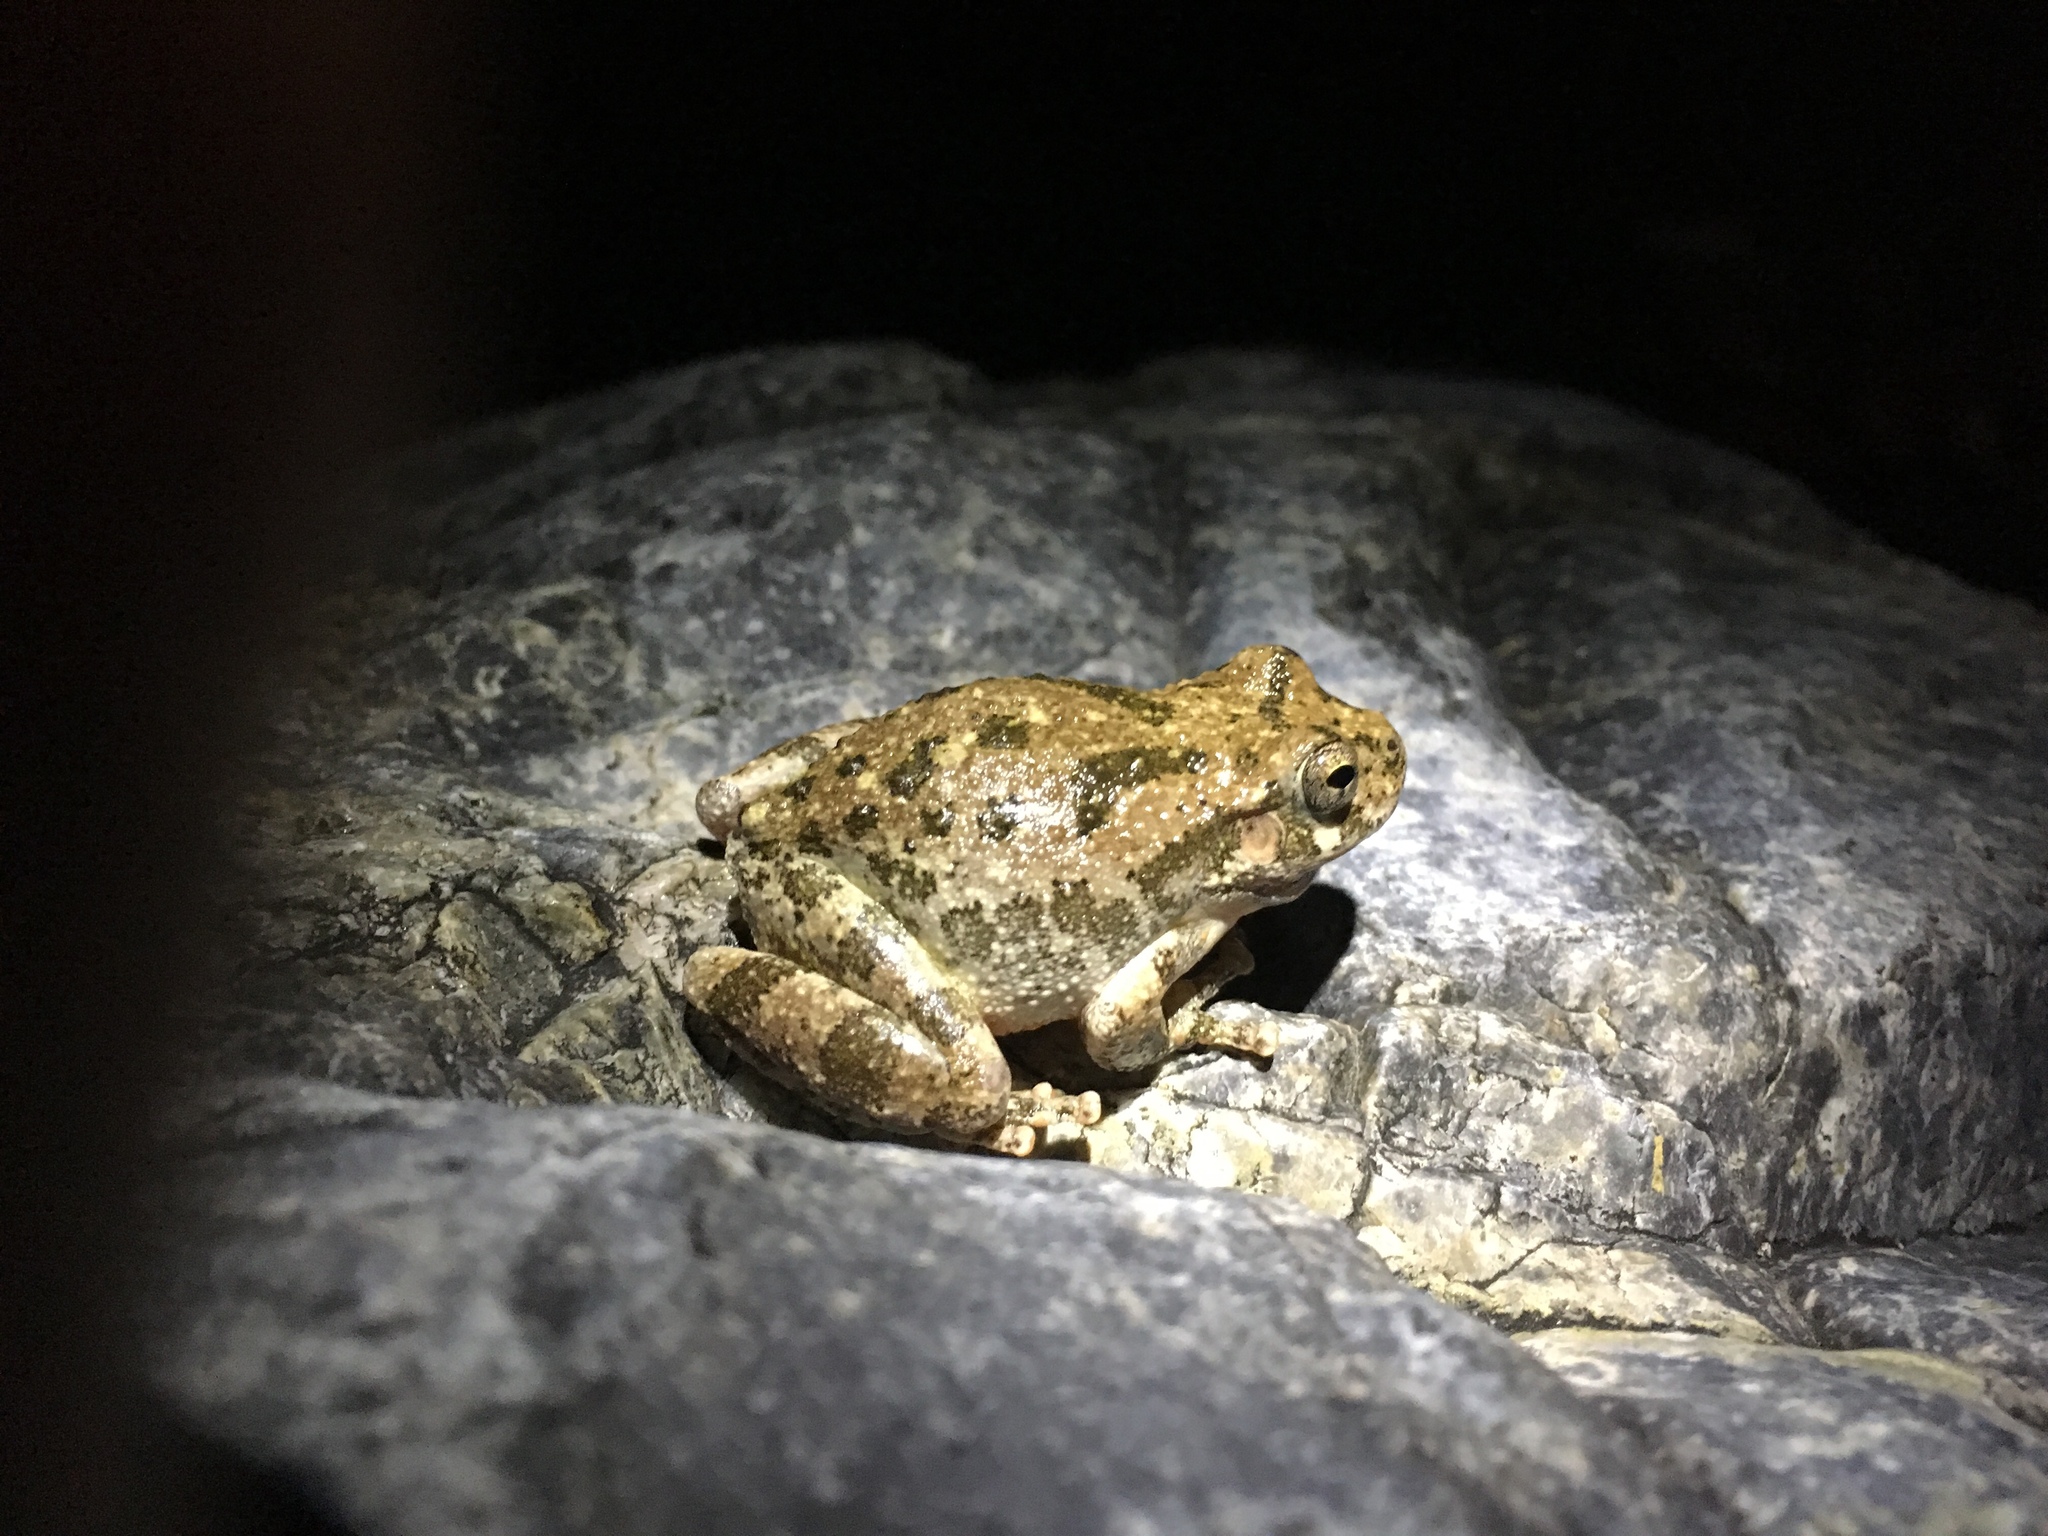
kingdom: Animalia
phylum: Chordata
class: Amphibia
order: Anura
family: Hylidae
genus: Dryophytes
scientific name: Dryophytes arenicolor
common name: Canyon treefrog
